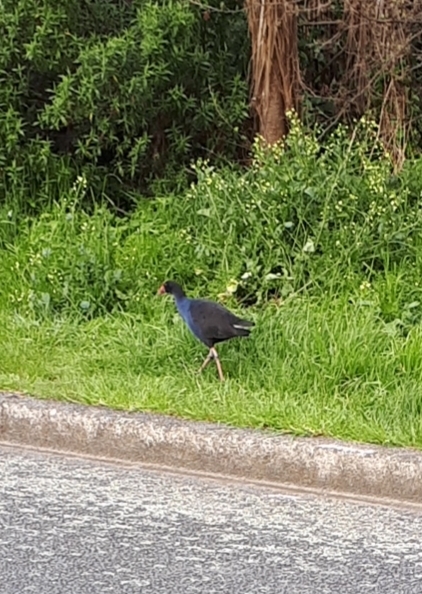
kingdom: Animalia
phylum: Chordata
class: Aves
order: Gruiformes
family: Rallidae
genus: Porphyrio
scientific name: Porphyrio melanotus
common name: Australasian swamphen
